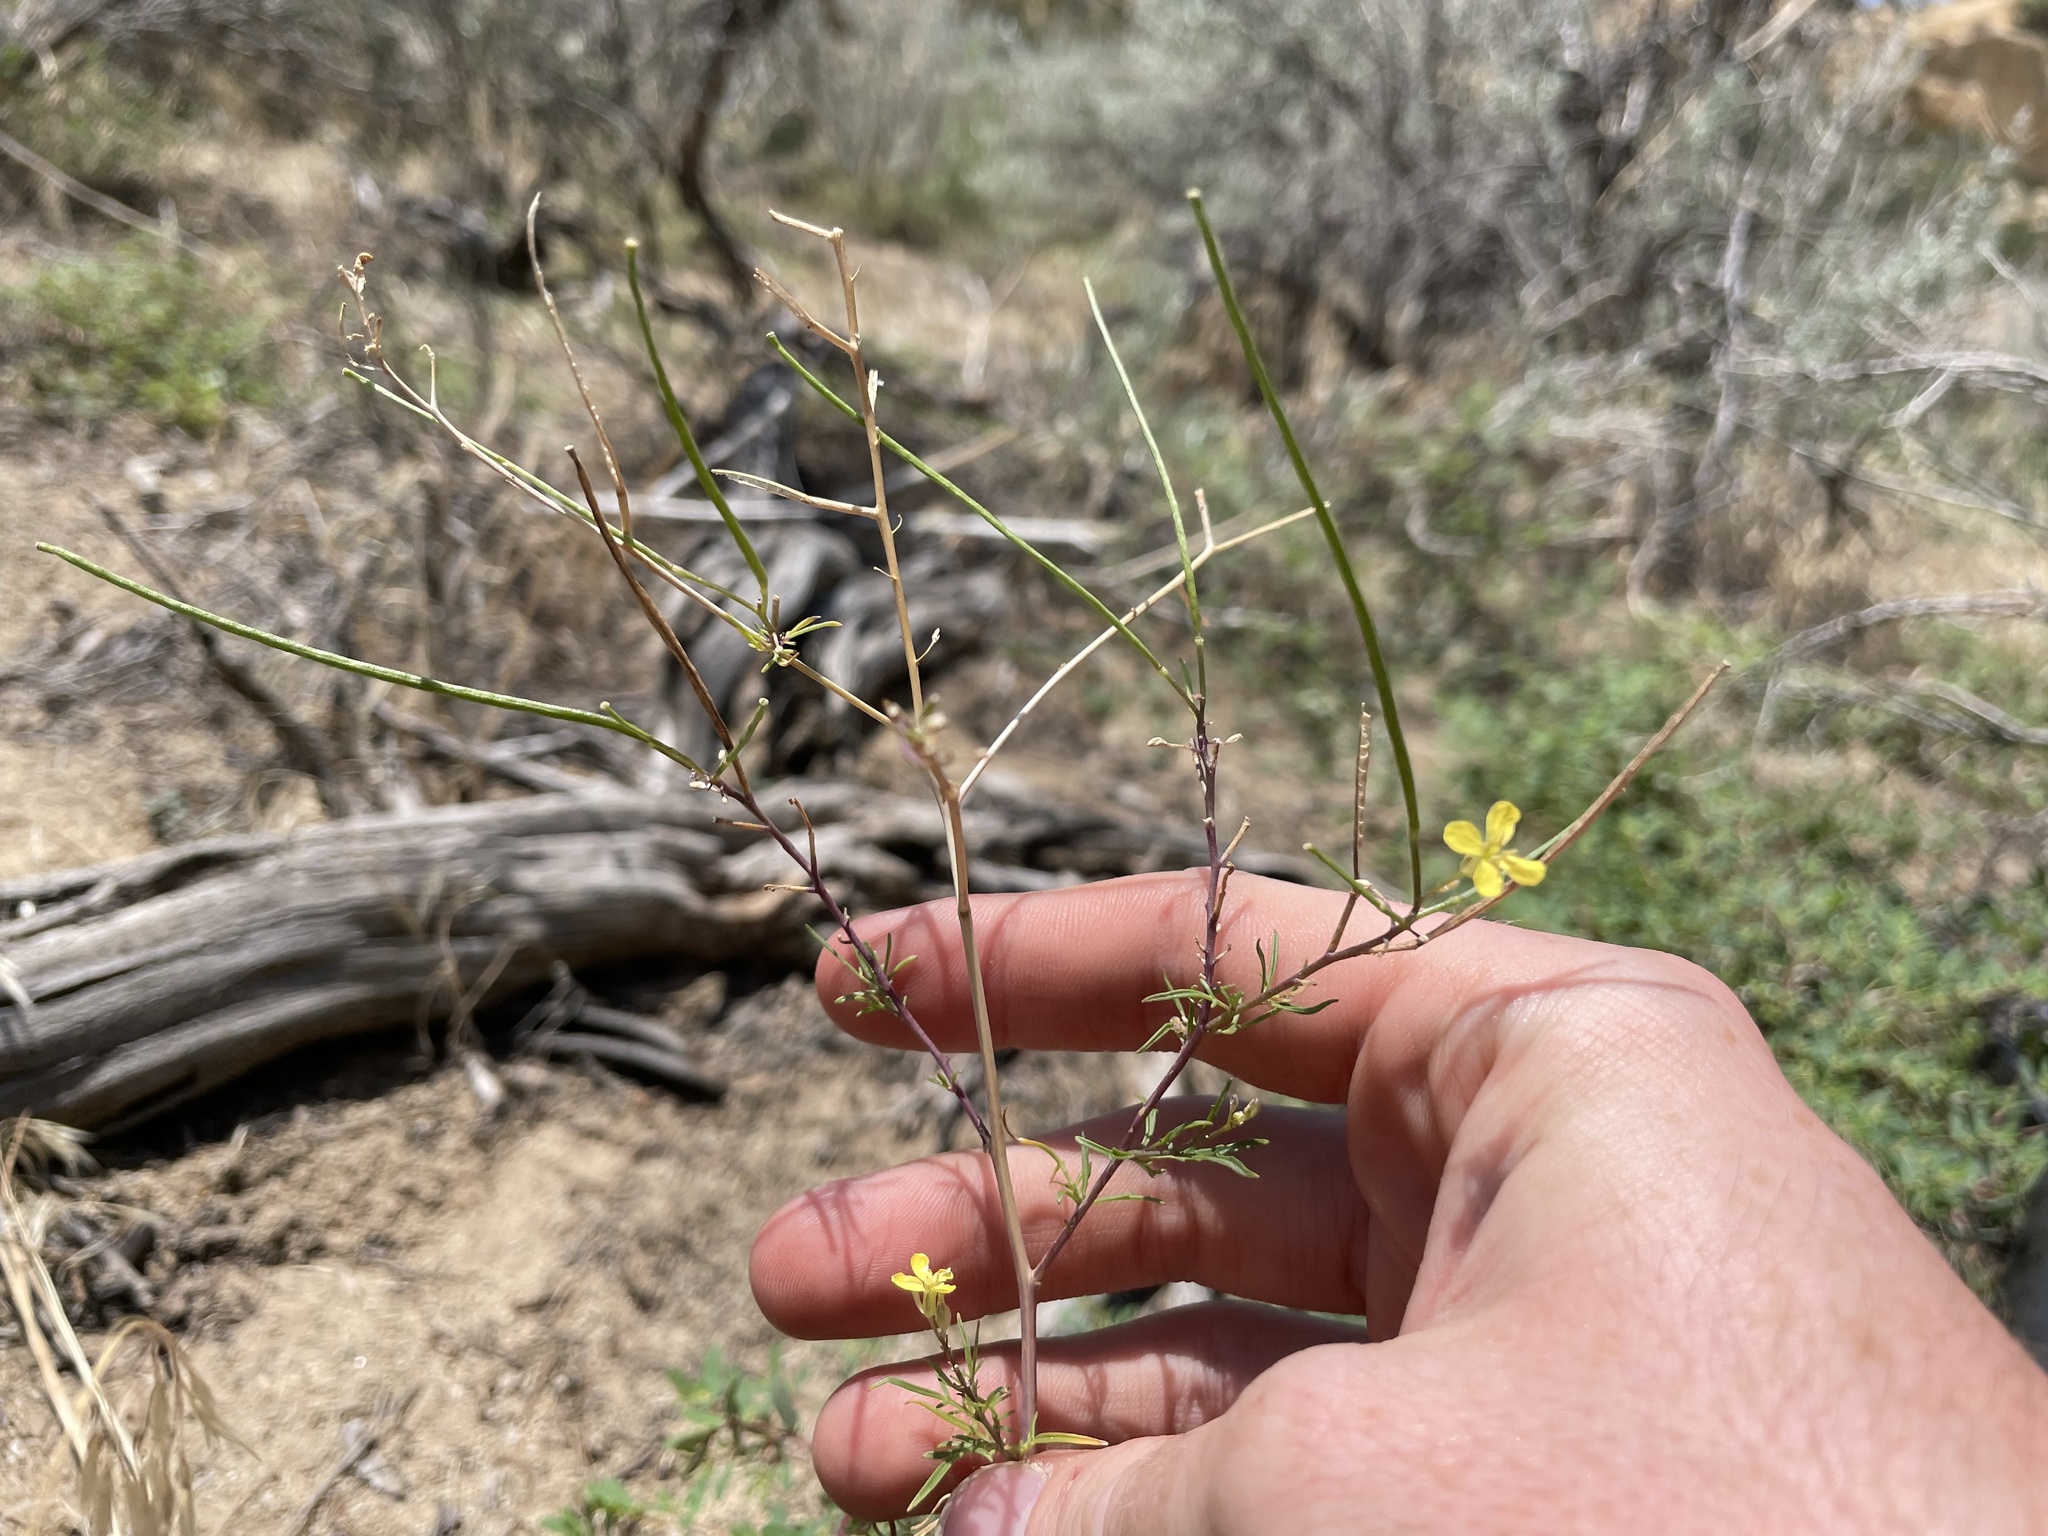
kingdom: Plantae
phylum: Tracheophyta
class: Magnoliopsida
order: Brassicales
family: Brassicaceae
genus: Sisymbrium
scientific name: Sisymbrium altissimum
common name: Tall rocket
